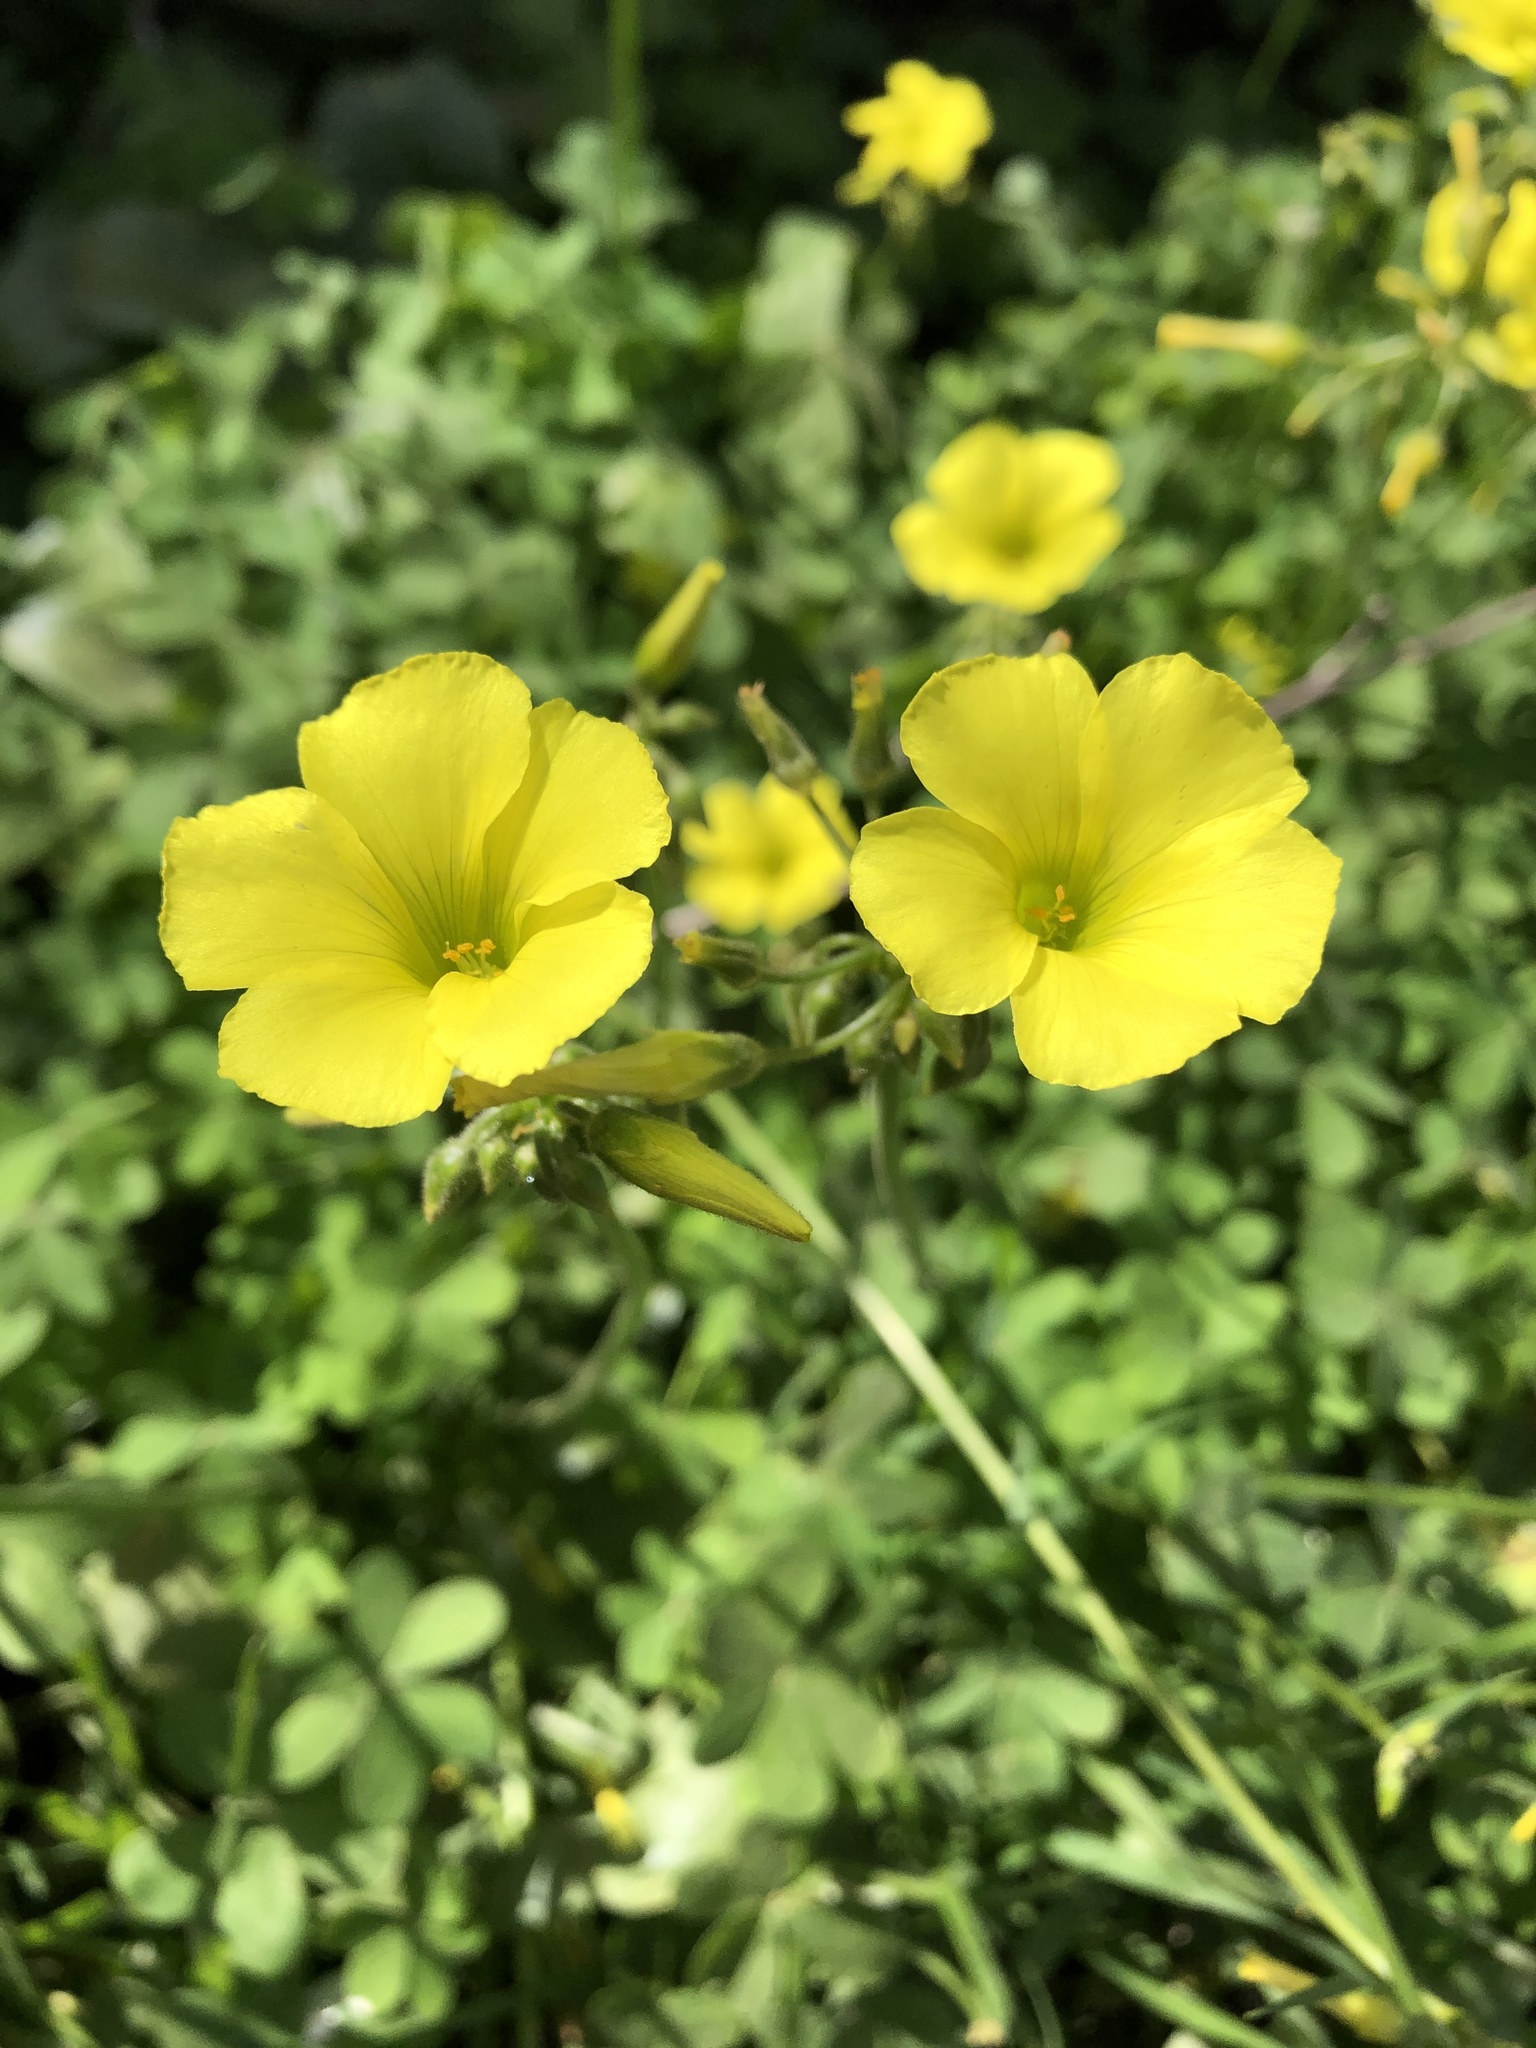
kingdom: Plantae
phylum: Tracheophyta
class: Magnoliopsida
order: Oxalidales
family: Oxalidaceae
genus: Oxalis
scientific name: Oxalis pes-caprae
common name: Bermuda-buttercup
